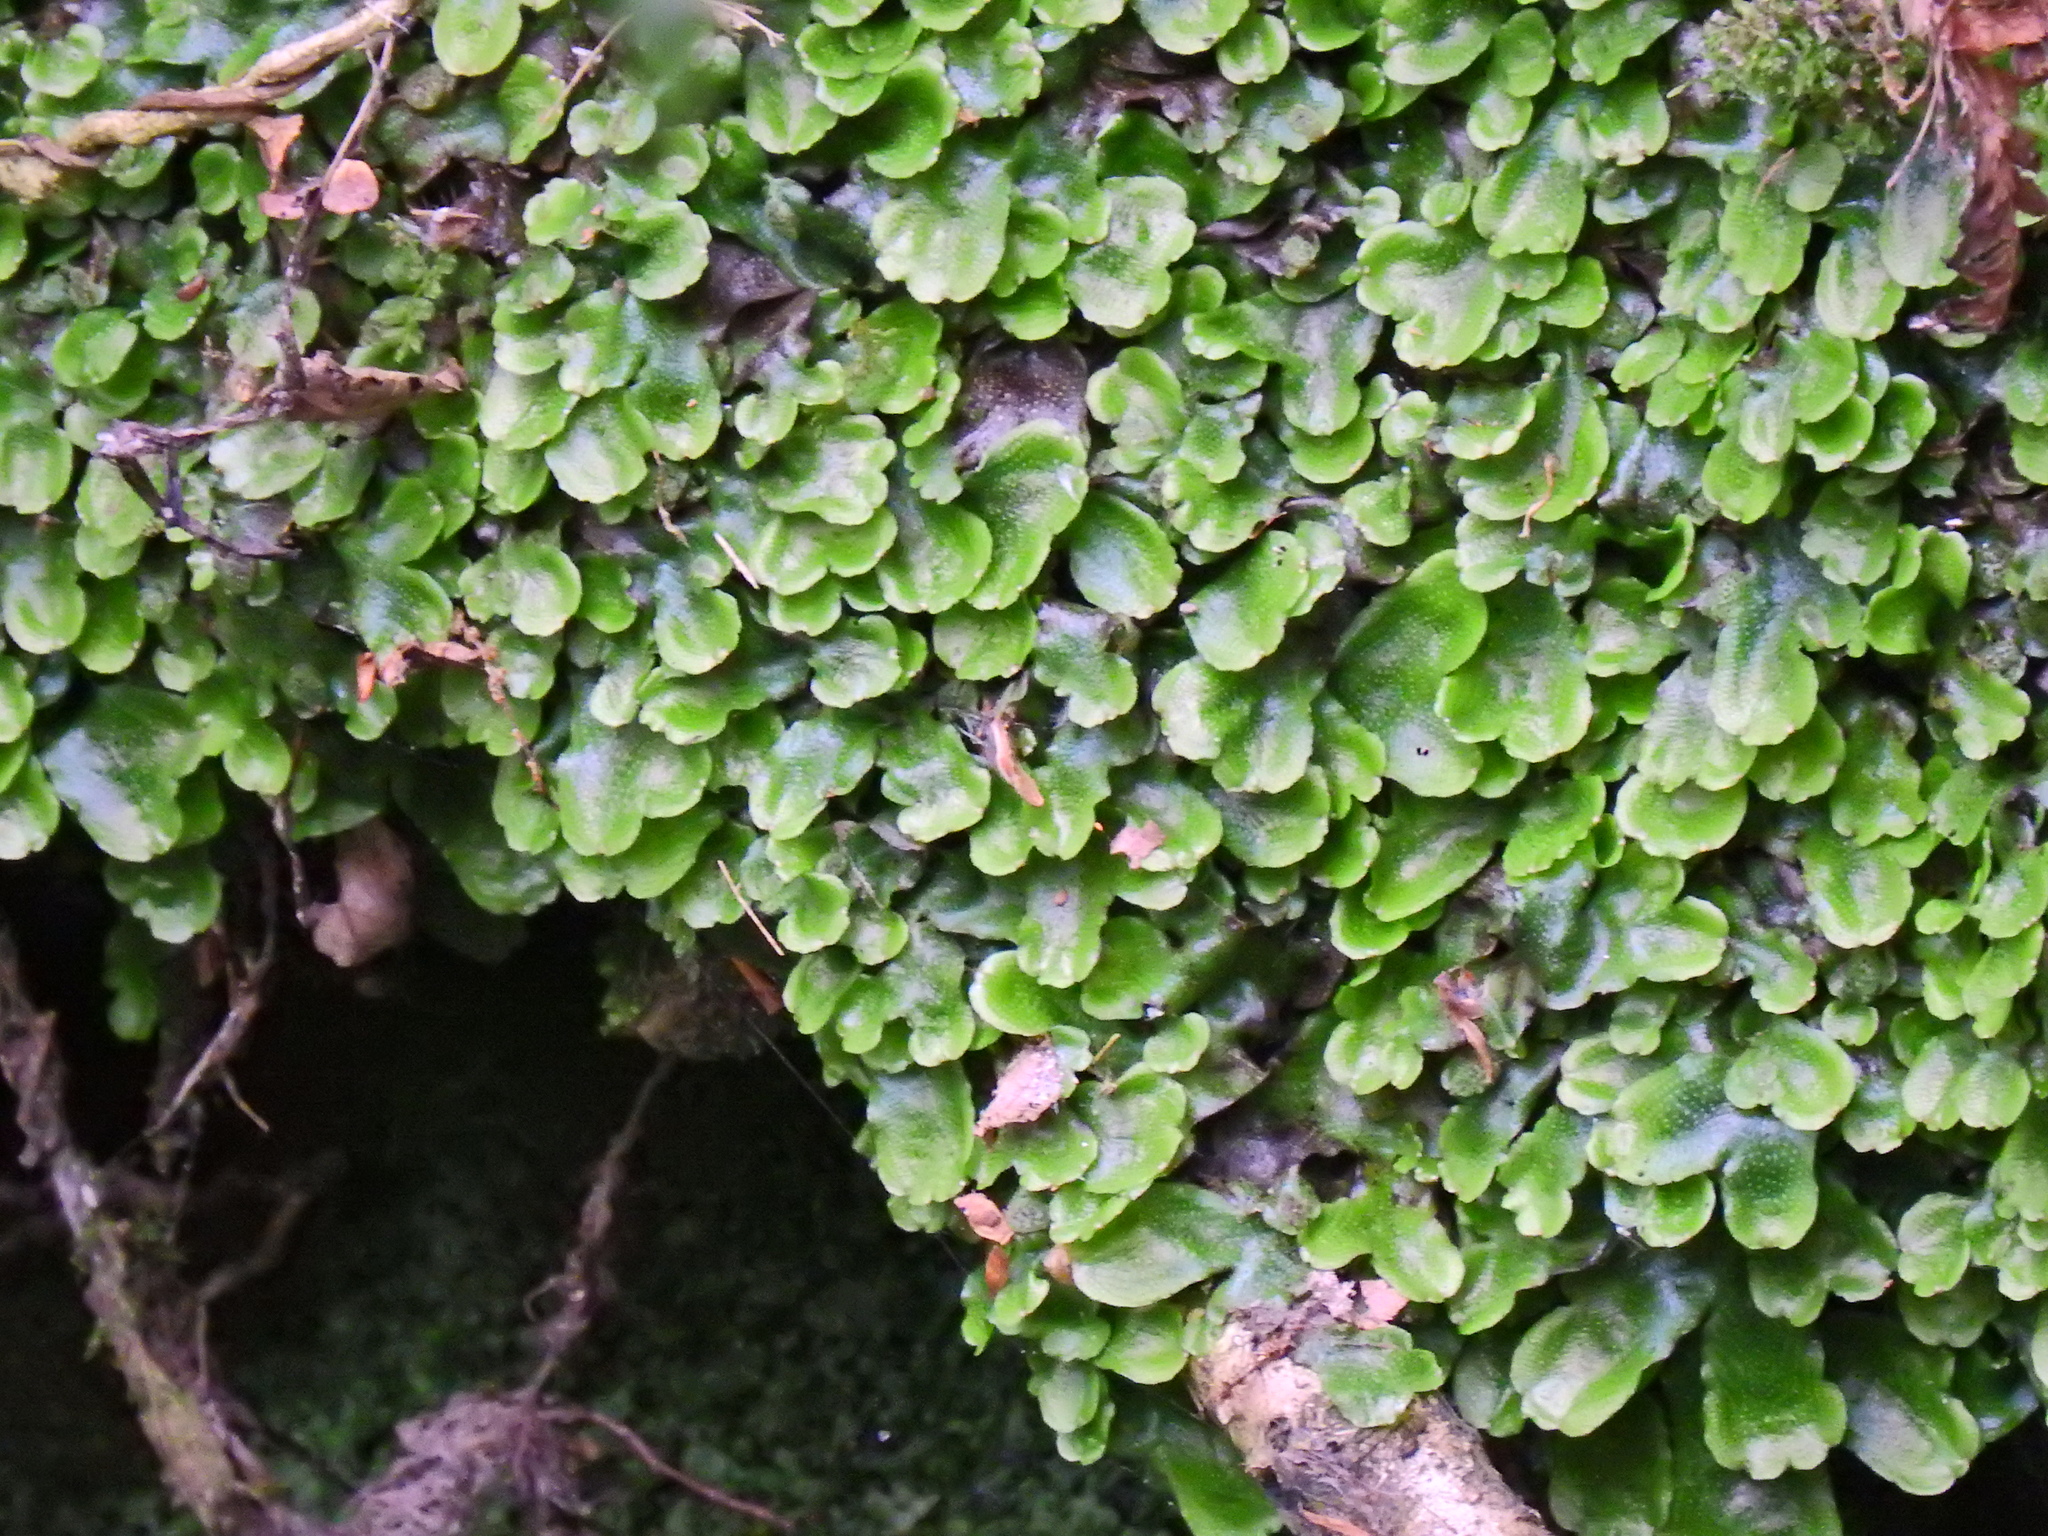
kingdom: Plantae
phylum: Marchantiophyta
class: Marchantiopsida
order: Marchantiales
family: Conocephalaceae
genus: Conocephalum
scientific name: Conocephalum conicum
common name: Great scented liverwort
